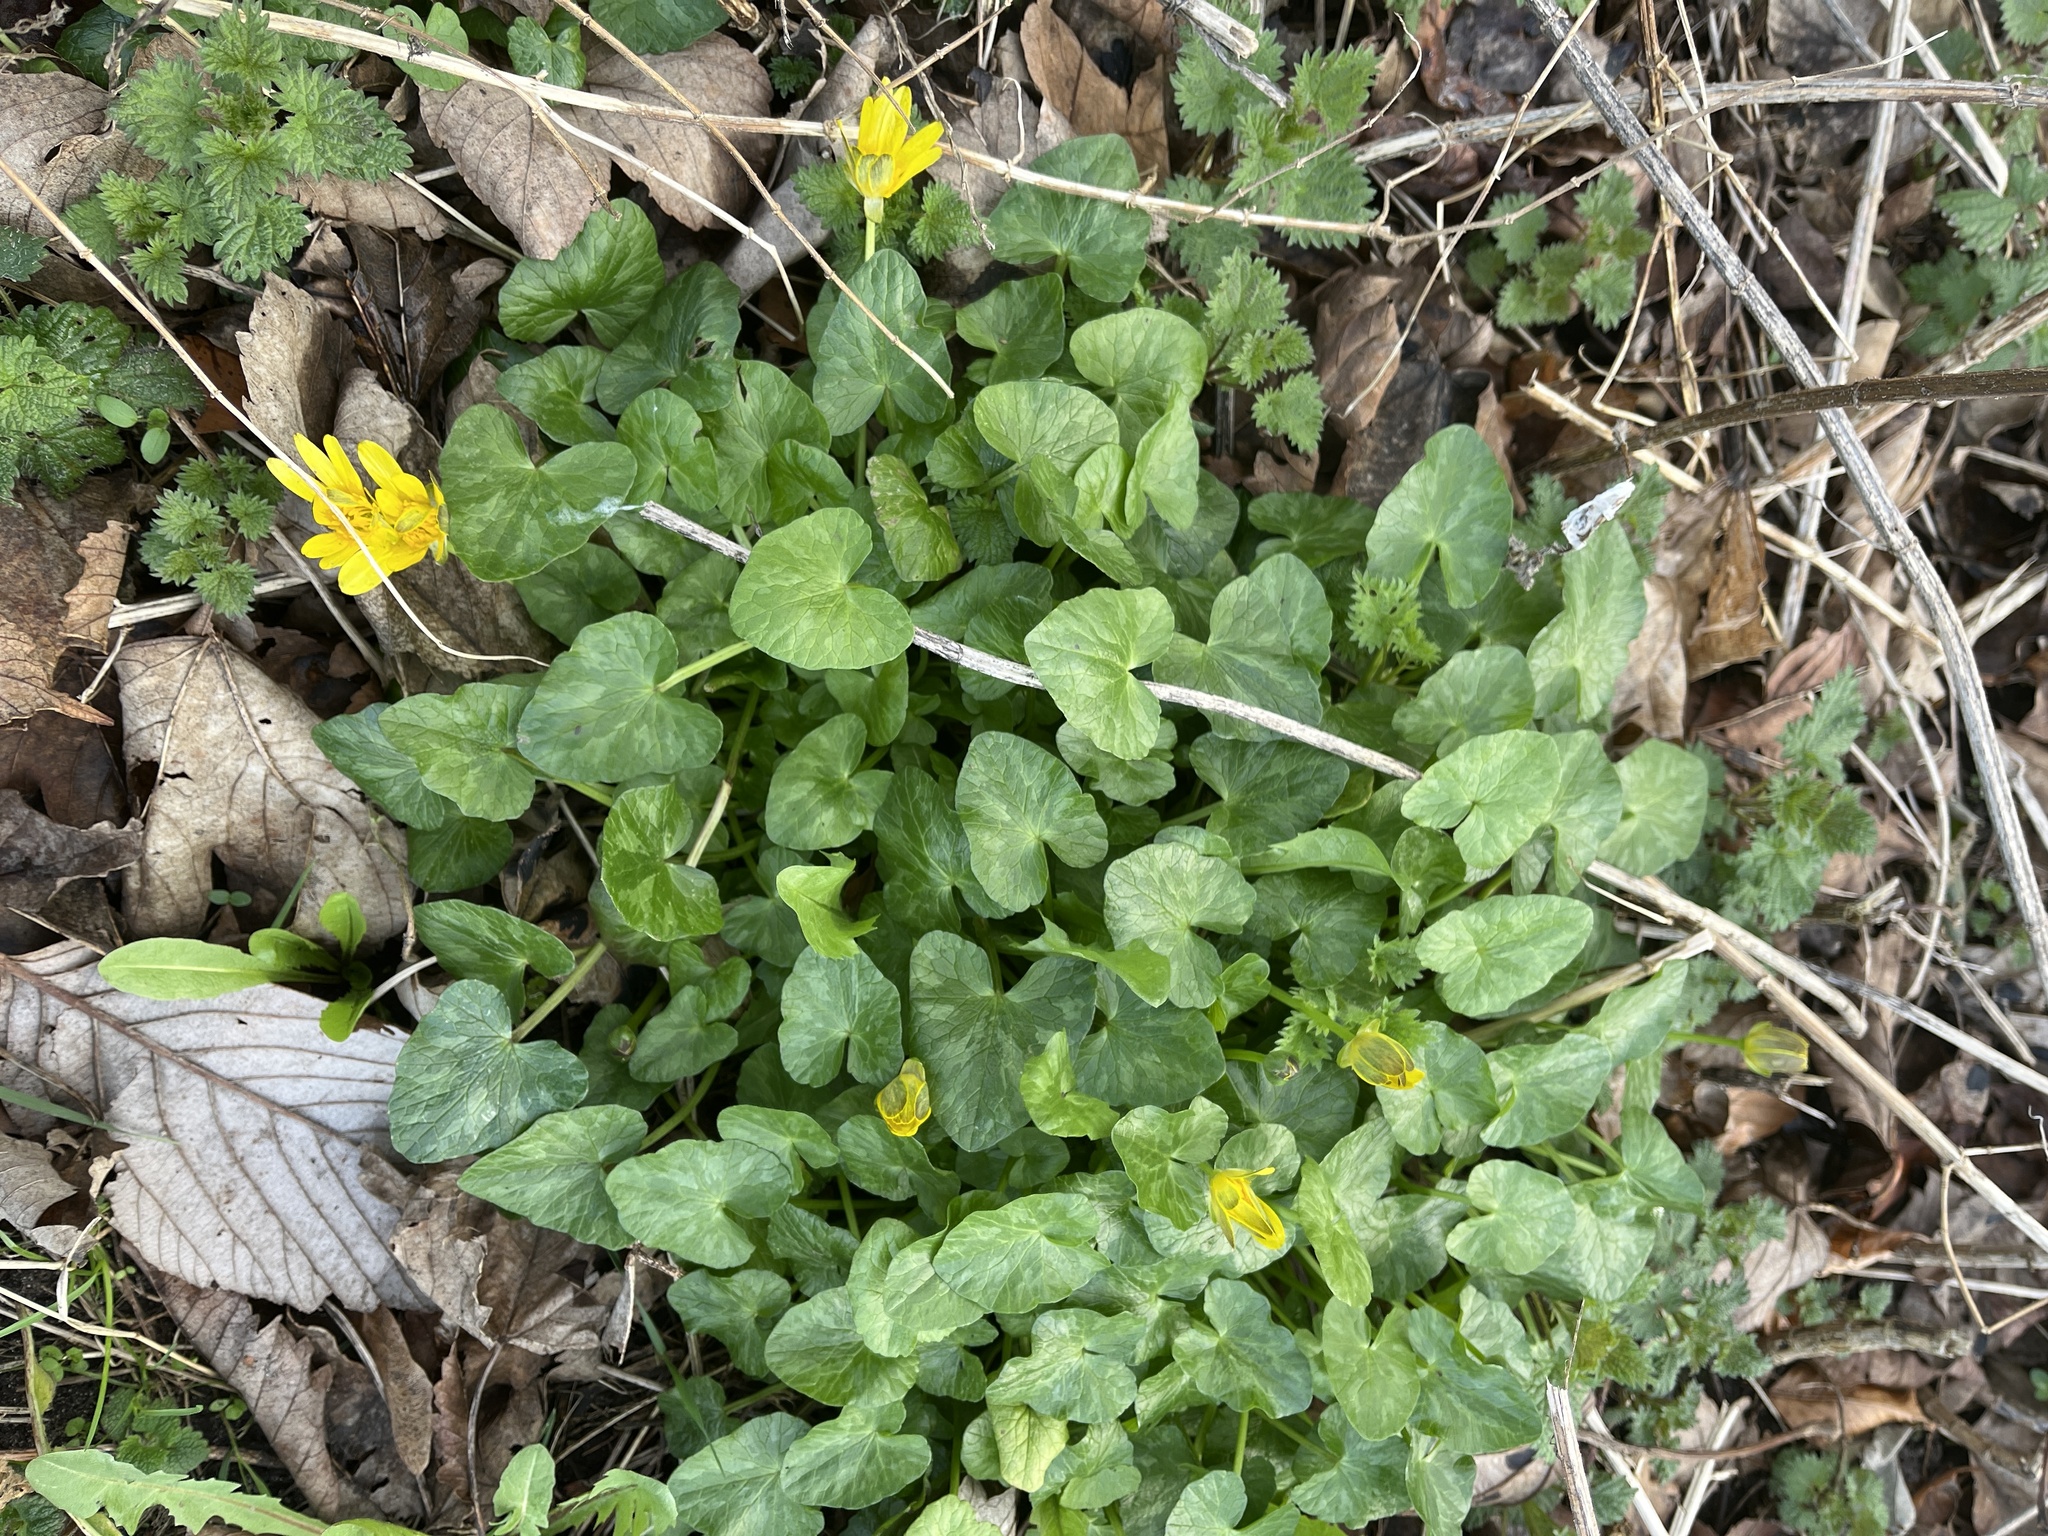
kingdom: Plantae
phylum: Tracheophyta
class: Magnoliopsida
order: Ranunculales
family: Ranunculaceae
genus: Ficaria
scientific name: Ficaria verna
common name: Lesser celandine
